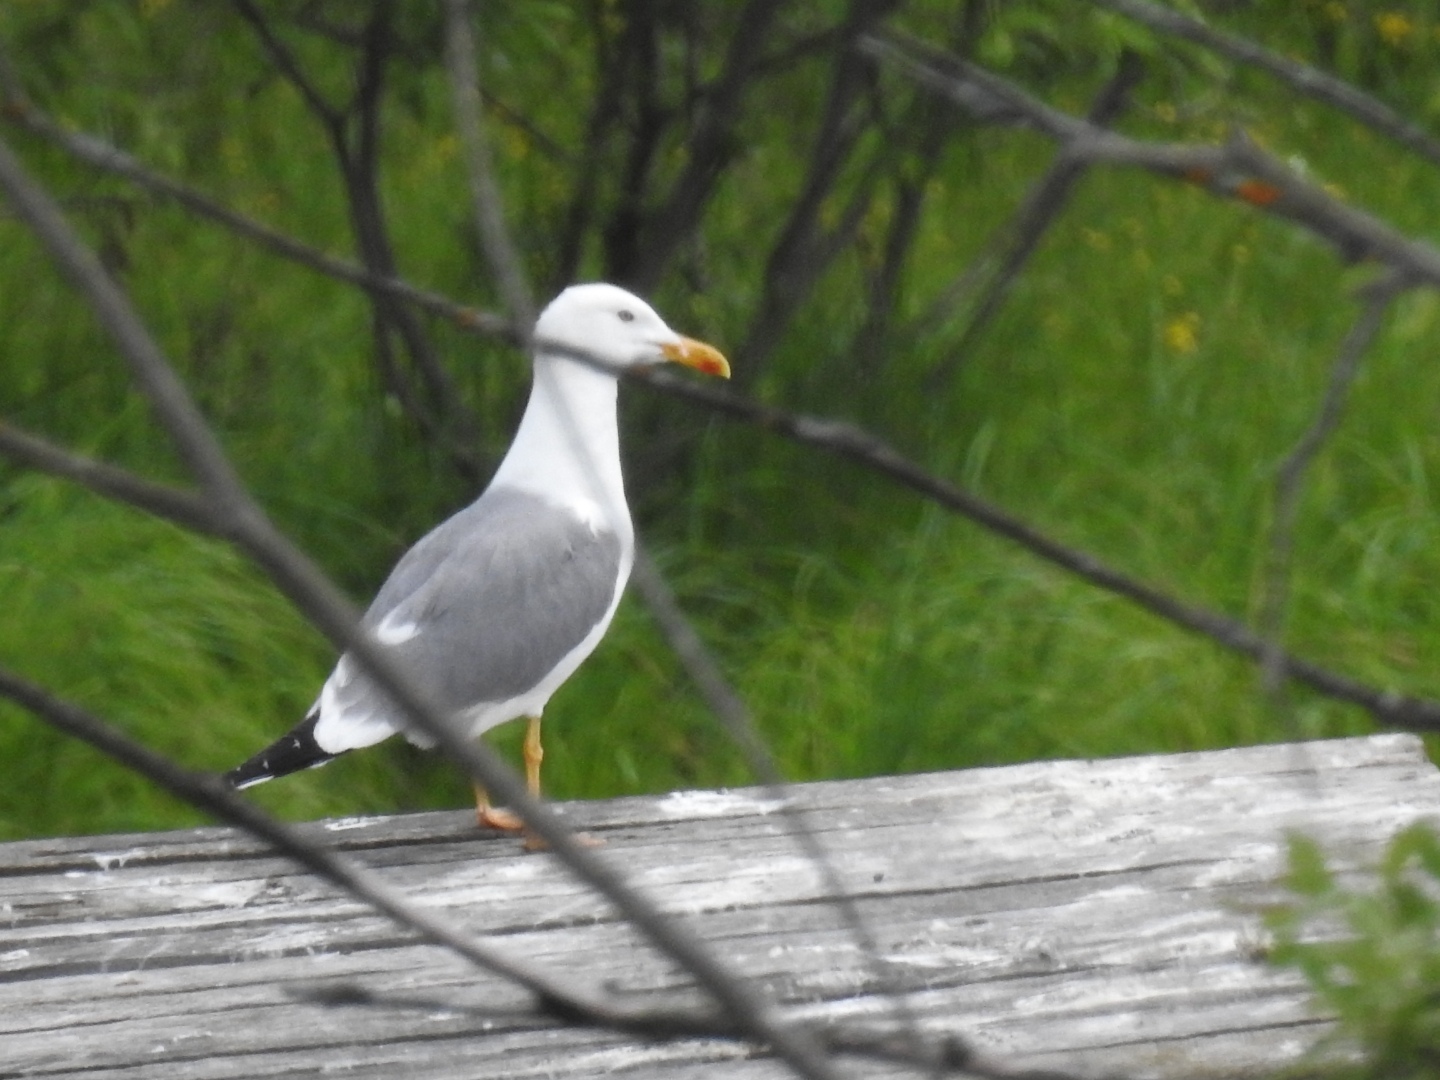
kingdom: Animalia
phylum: Chordata
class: Aves
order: Charadriiformes
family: Laridae
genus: Larus
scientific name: Larus cachinnans
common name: Caspian gull
